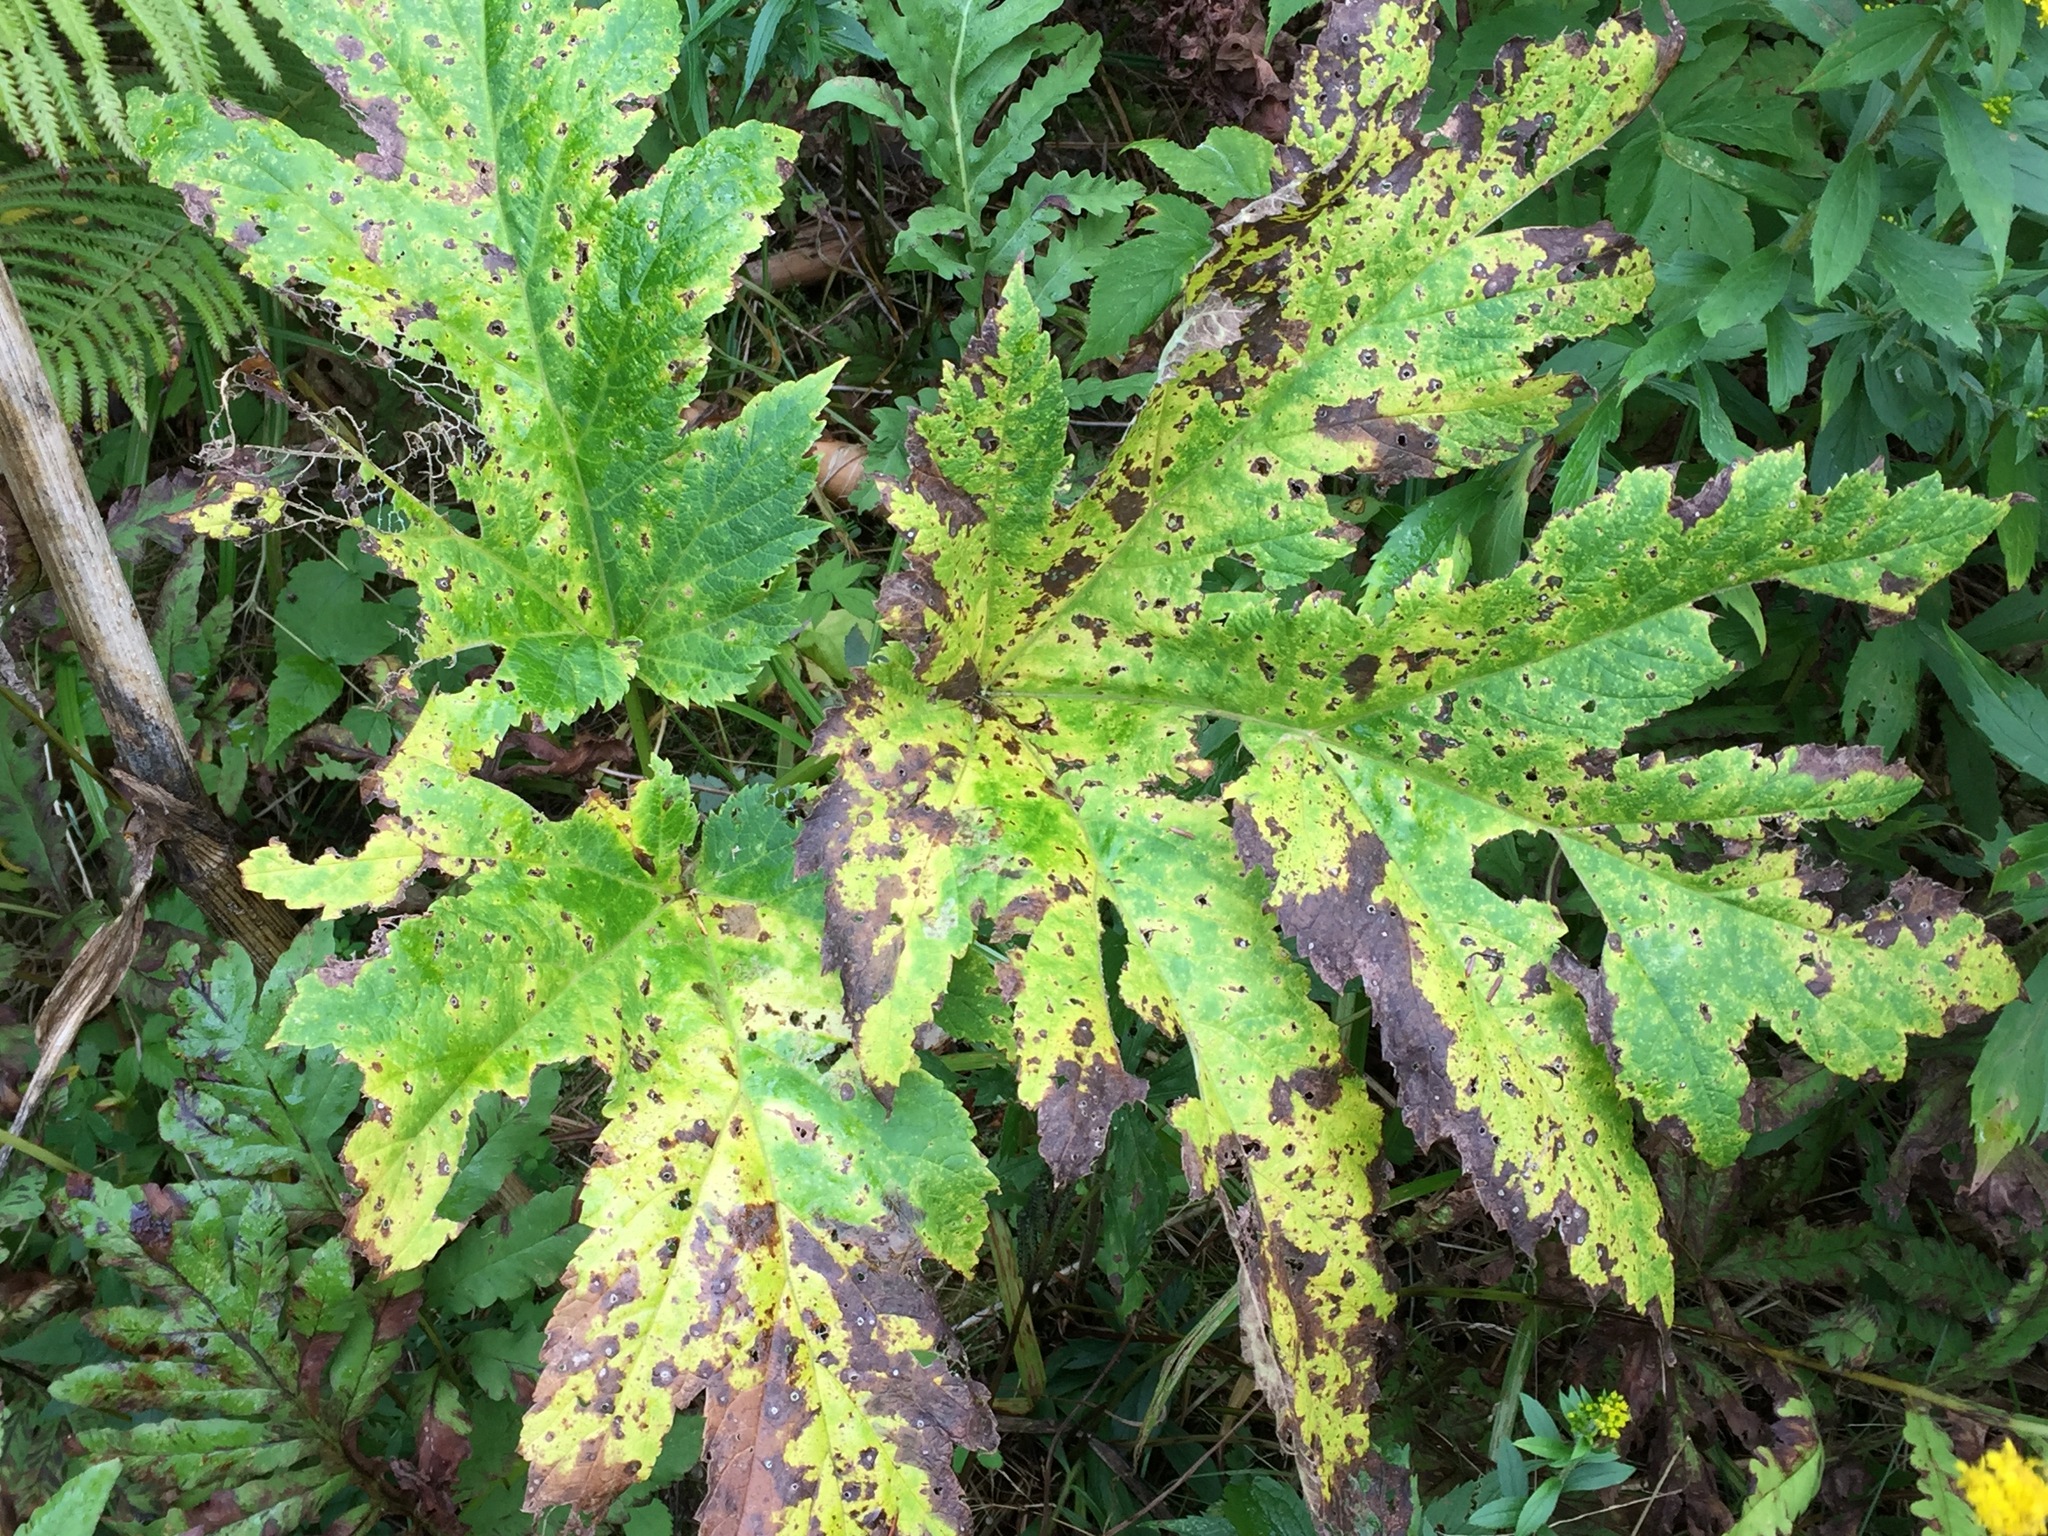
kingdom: Plantae
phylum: Tracheophyta
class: Magnoliopsida
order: Apiales
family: Apiaceae
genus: Heracleum
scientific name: Heracleum maximum
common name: American cow parsnip
